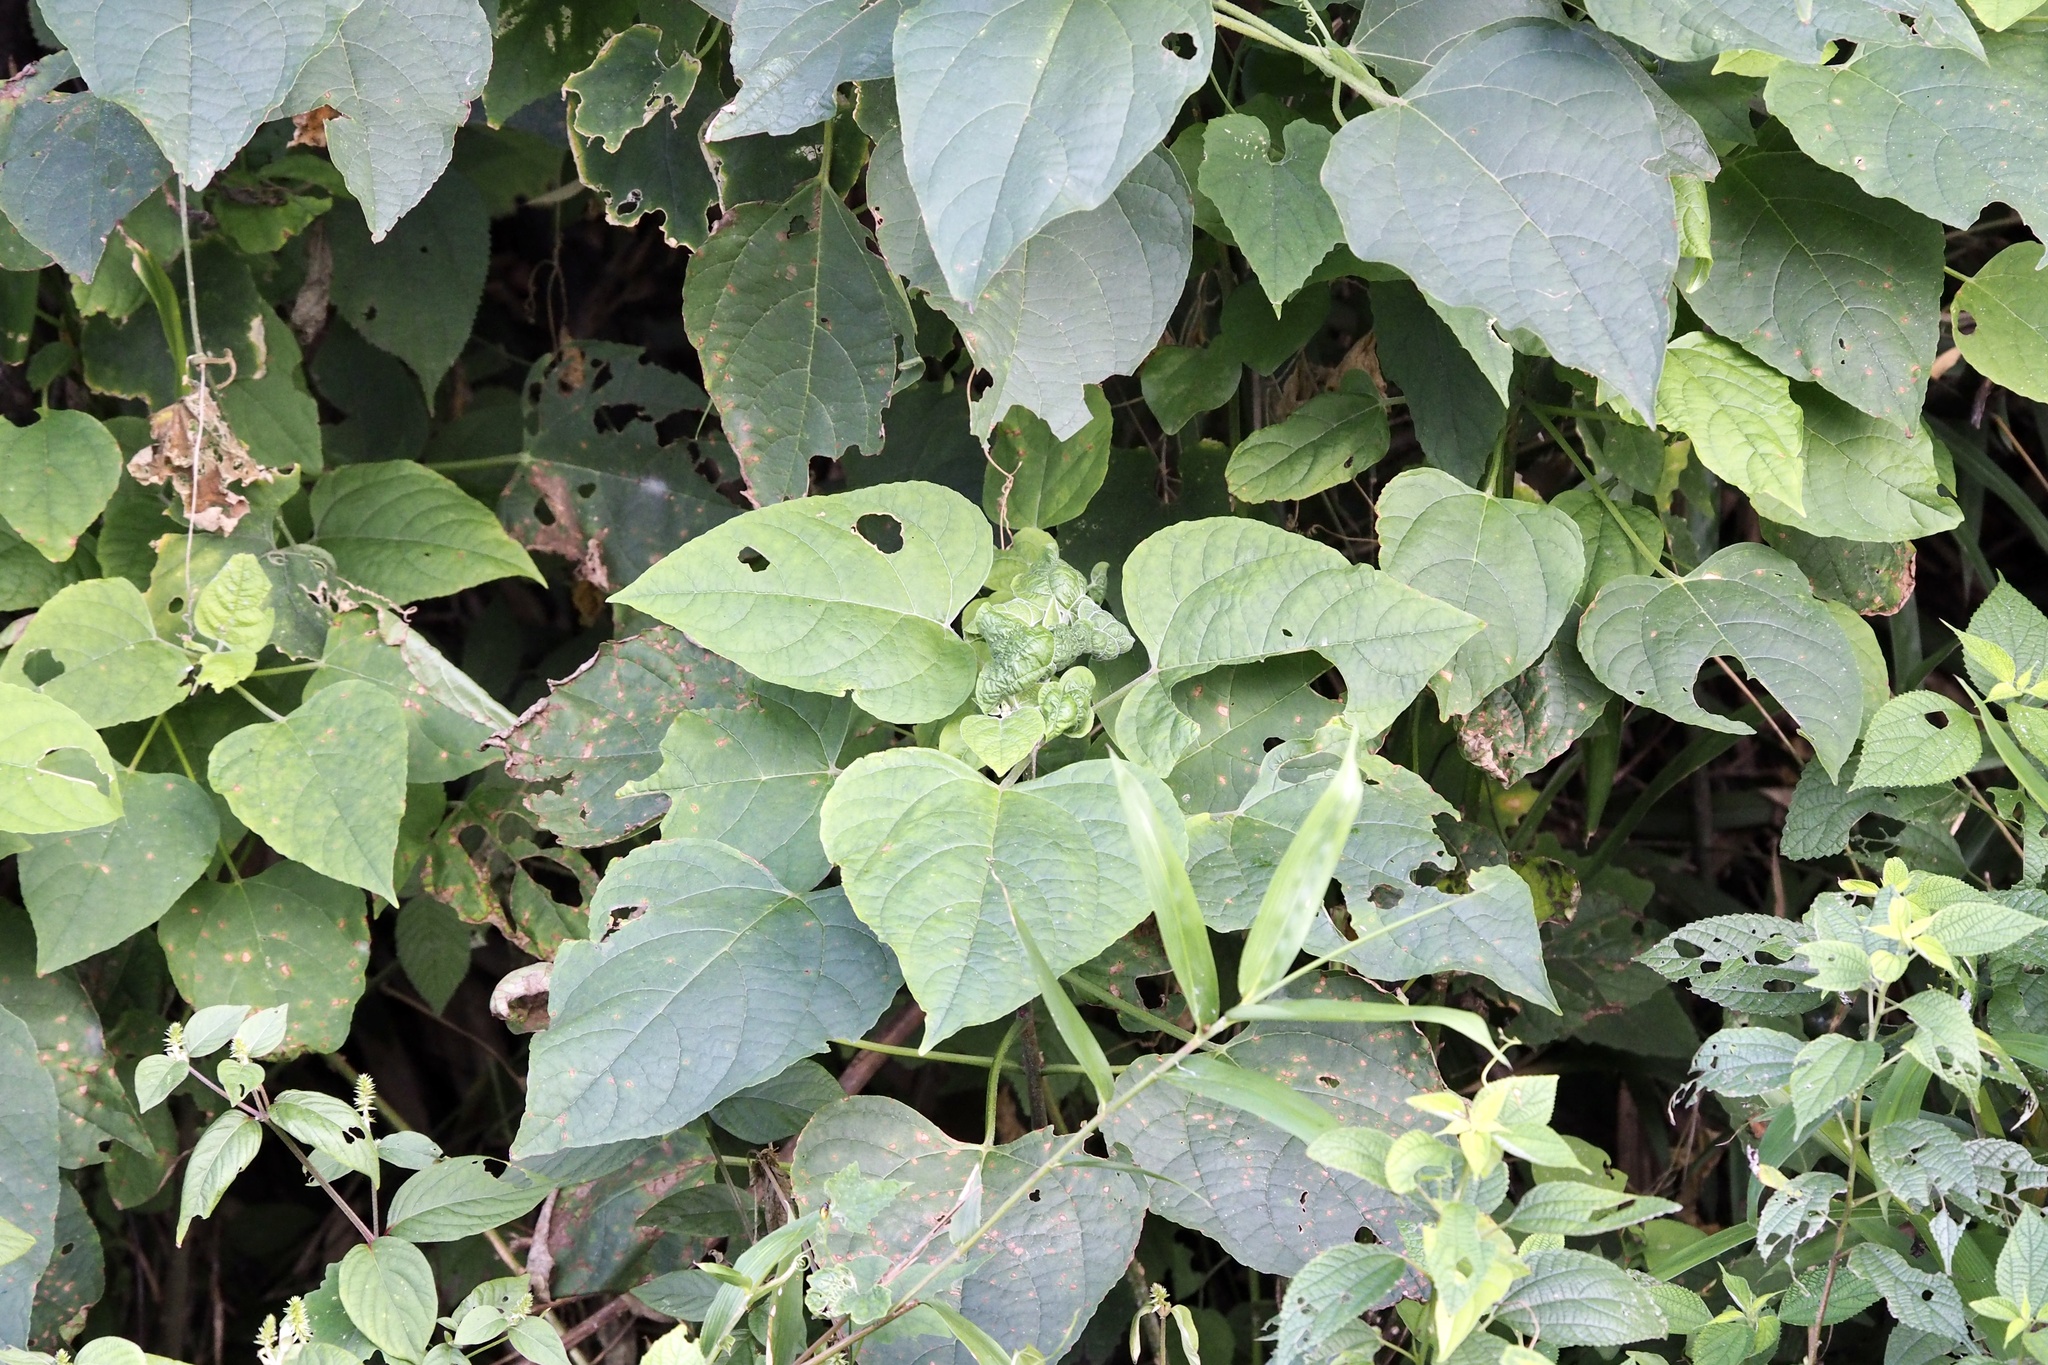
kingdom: Plantae
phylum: Tracheophyta
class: Magnoliopsida
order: Lamiales
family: Lamiaceae
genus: Clerodendrum
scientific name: Clerodendrum trichotomum
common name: Harlequin glorybower
